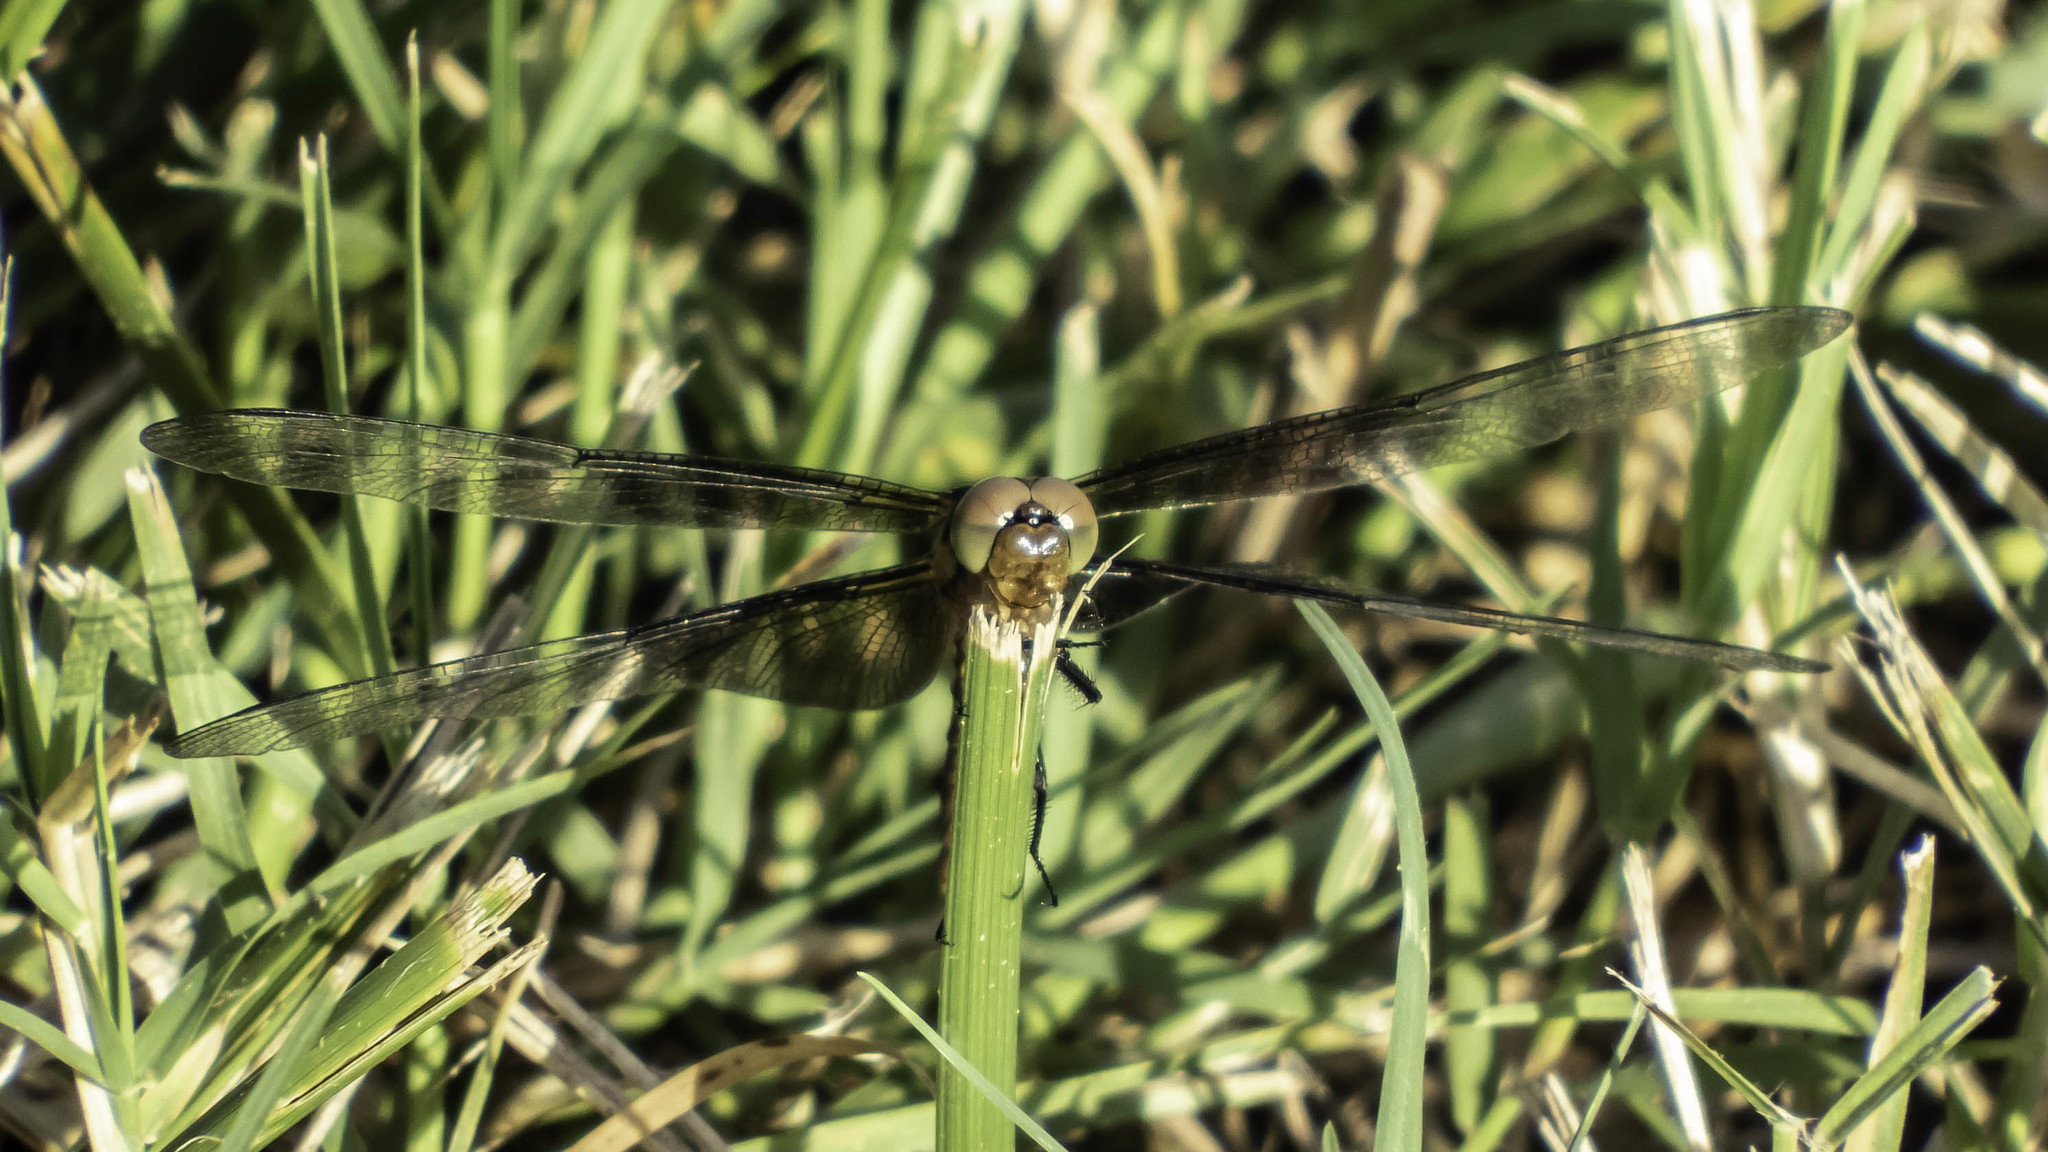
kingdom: Animalia
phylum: Arthropoda
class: Insecta
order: Odonata
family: Libellulidae
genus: Libellula
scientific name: Libellula luctuosa
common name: Widow skimmer
